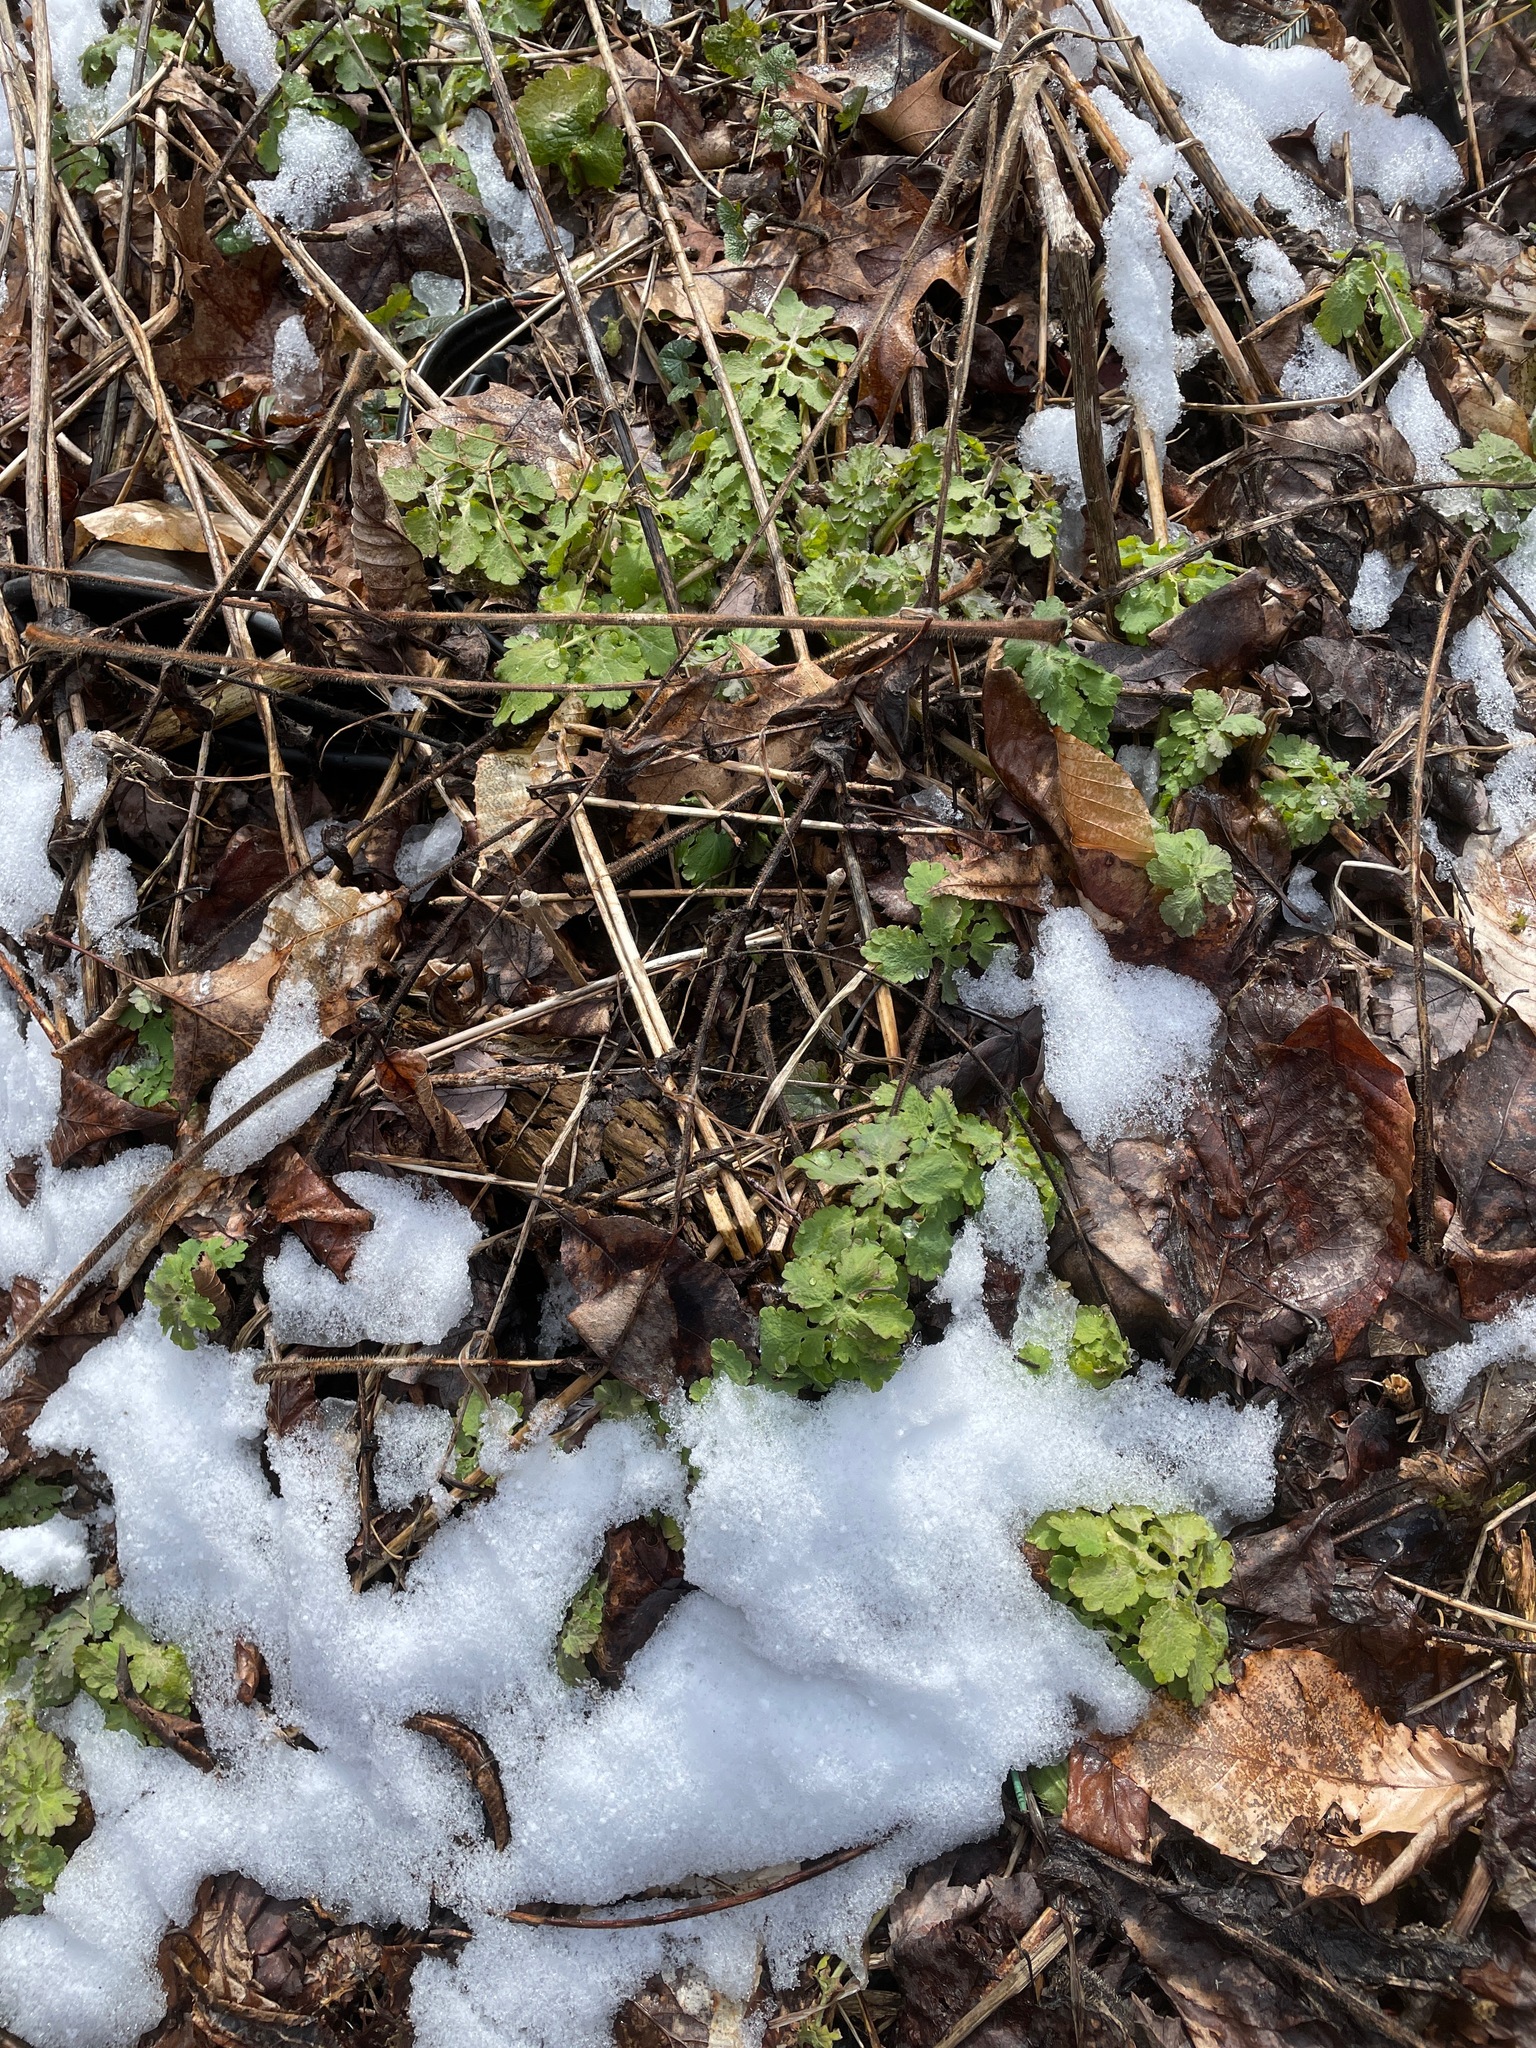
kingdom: Plantae
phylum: Tracheophyta
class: Magnoliopsida
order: Ranunculales
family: Papaveraceae
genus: Chelidonium
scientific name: Chelidonium majus
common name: Greater celandine
